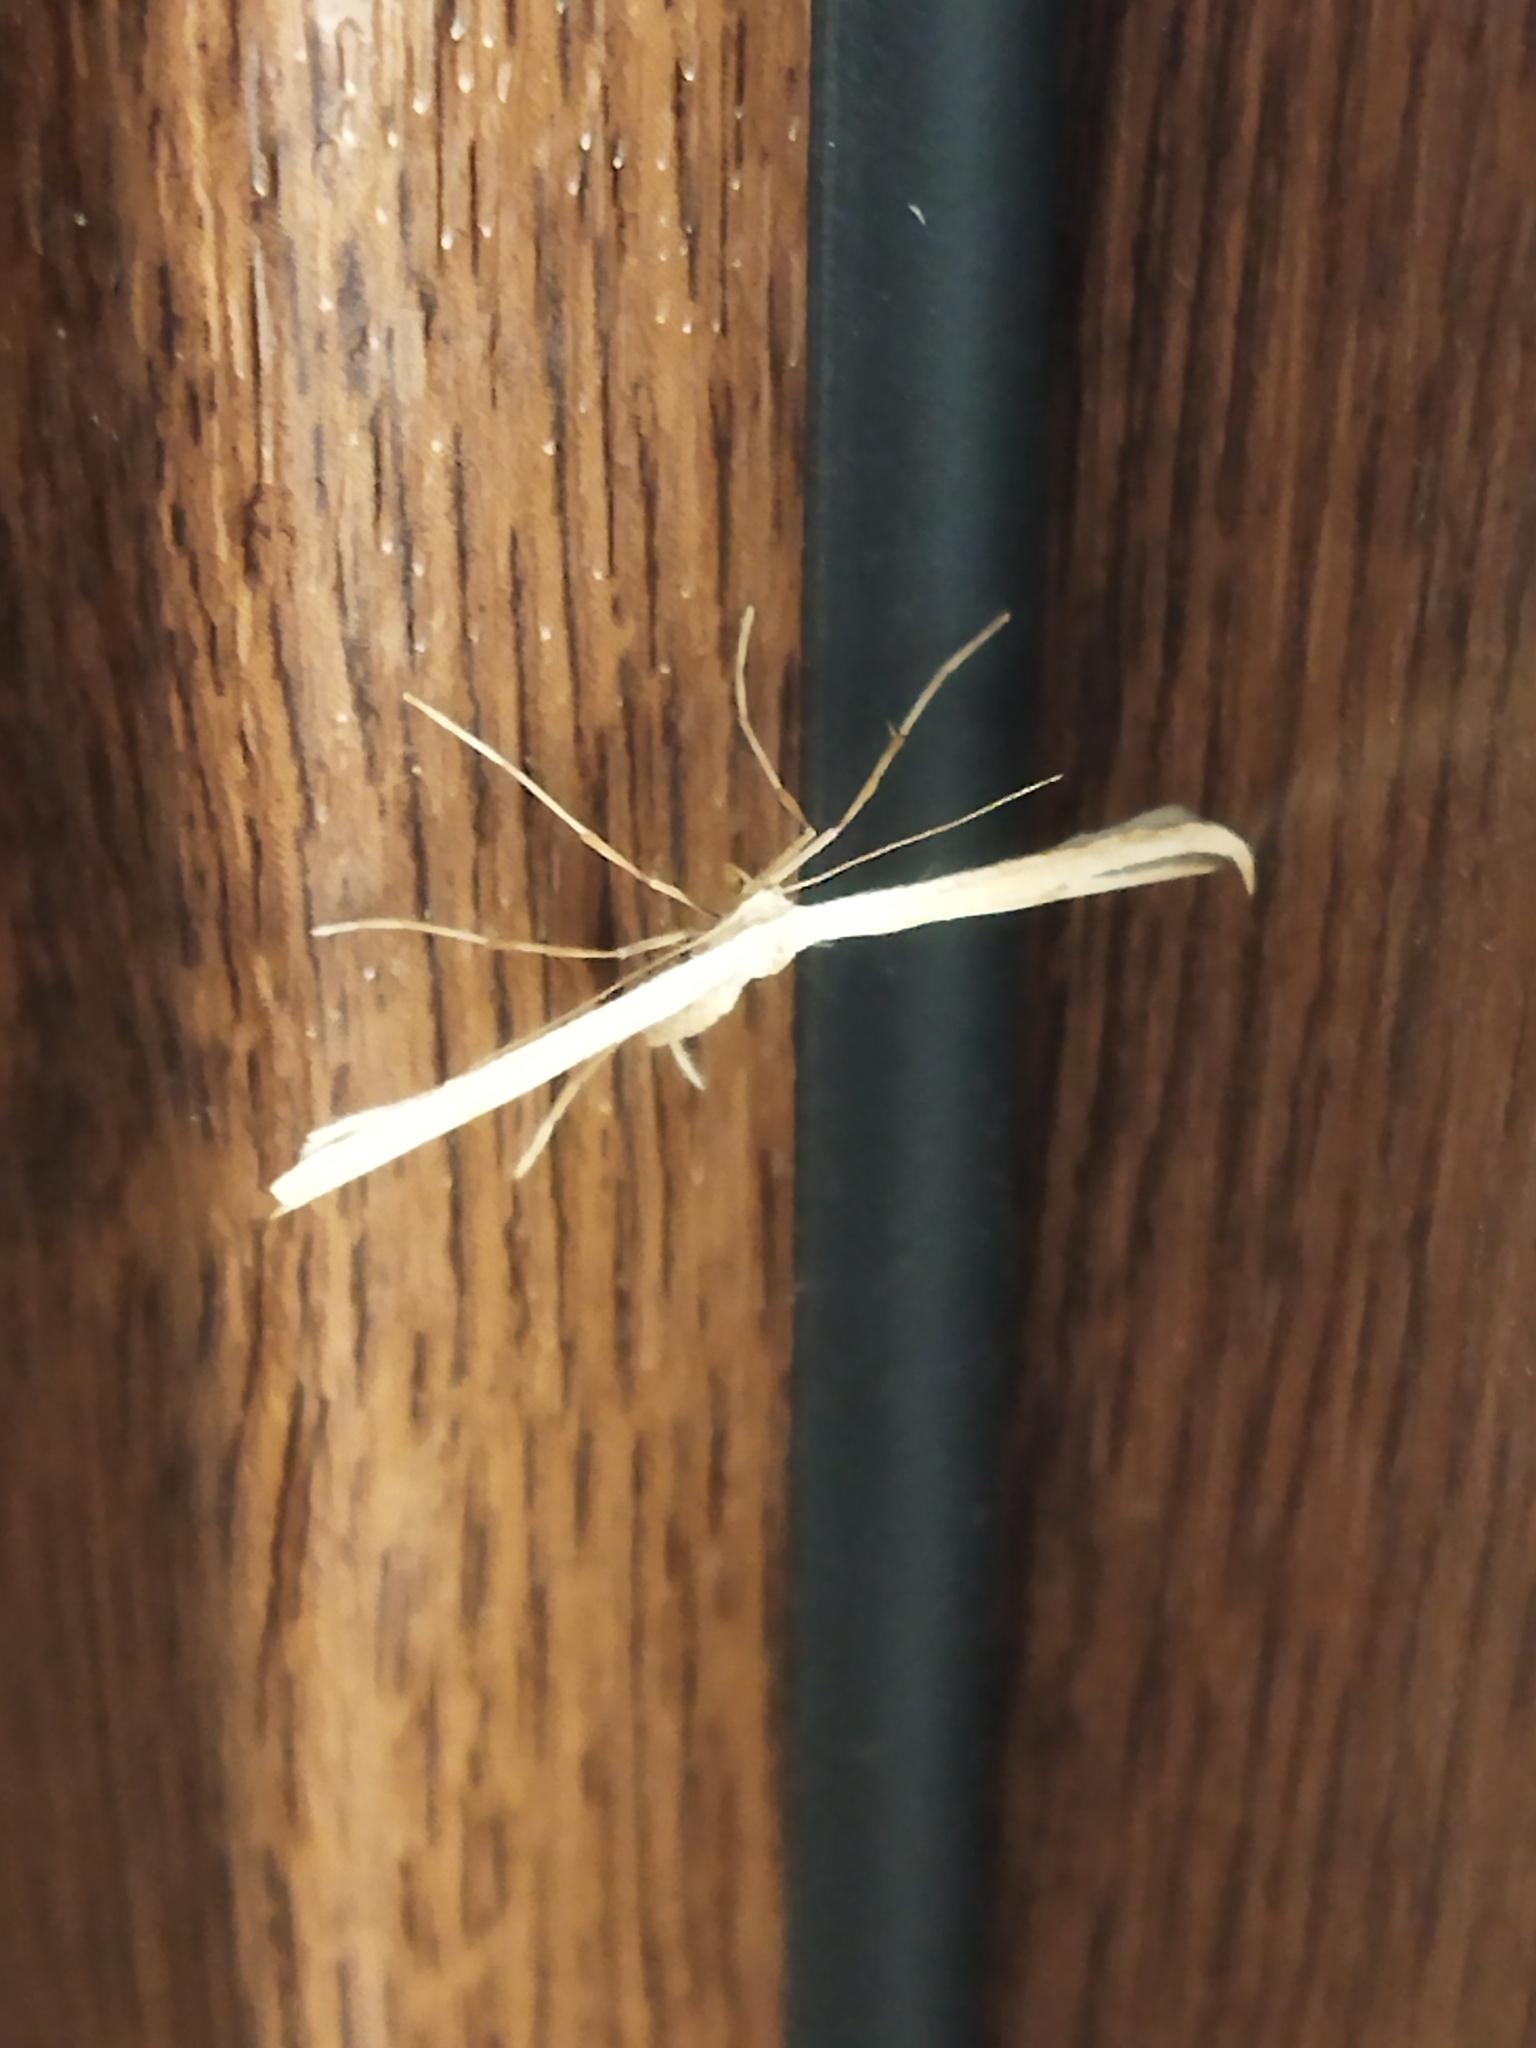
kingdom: Animalia
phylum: Arthropoda
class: Insecta
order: Lepidoptera
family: Pterophoridae
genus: Emmelina
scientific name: Emmelina monodactyla
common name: Common plume
